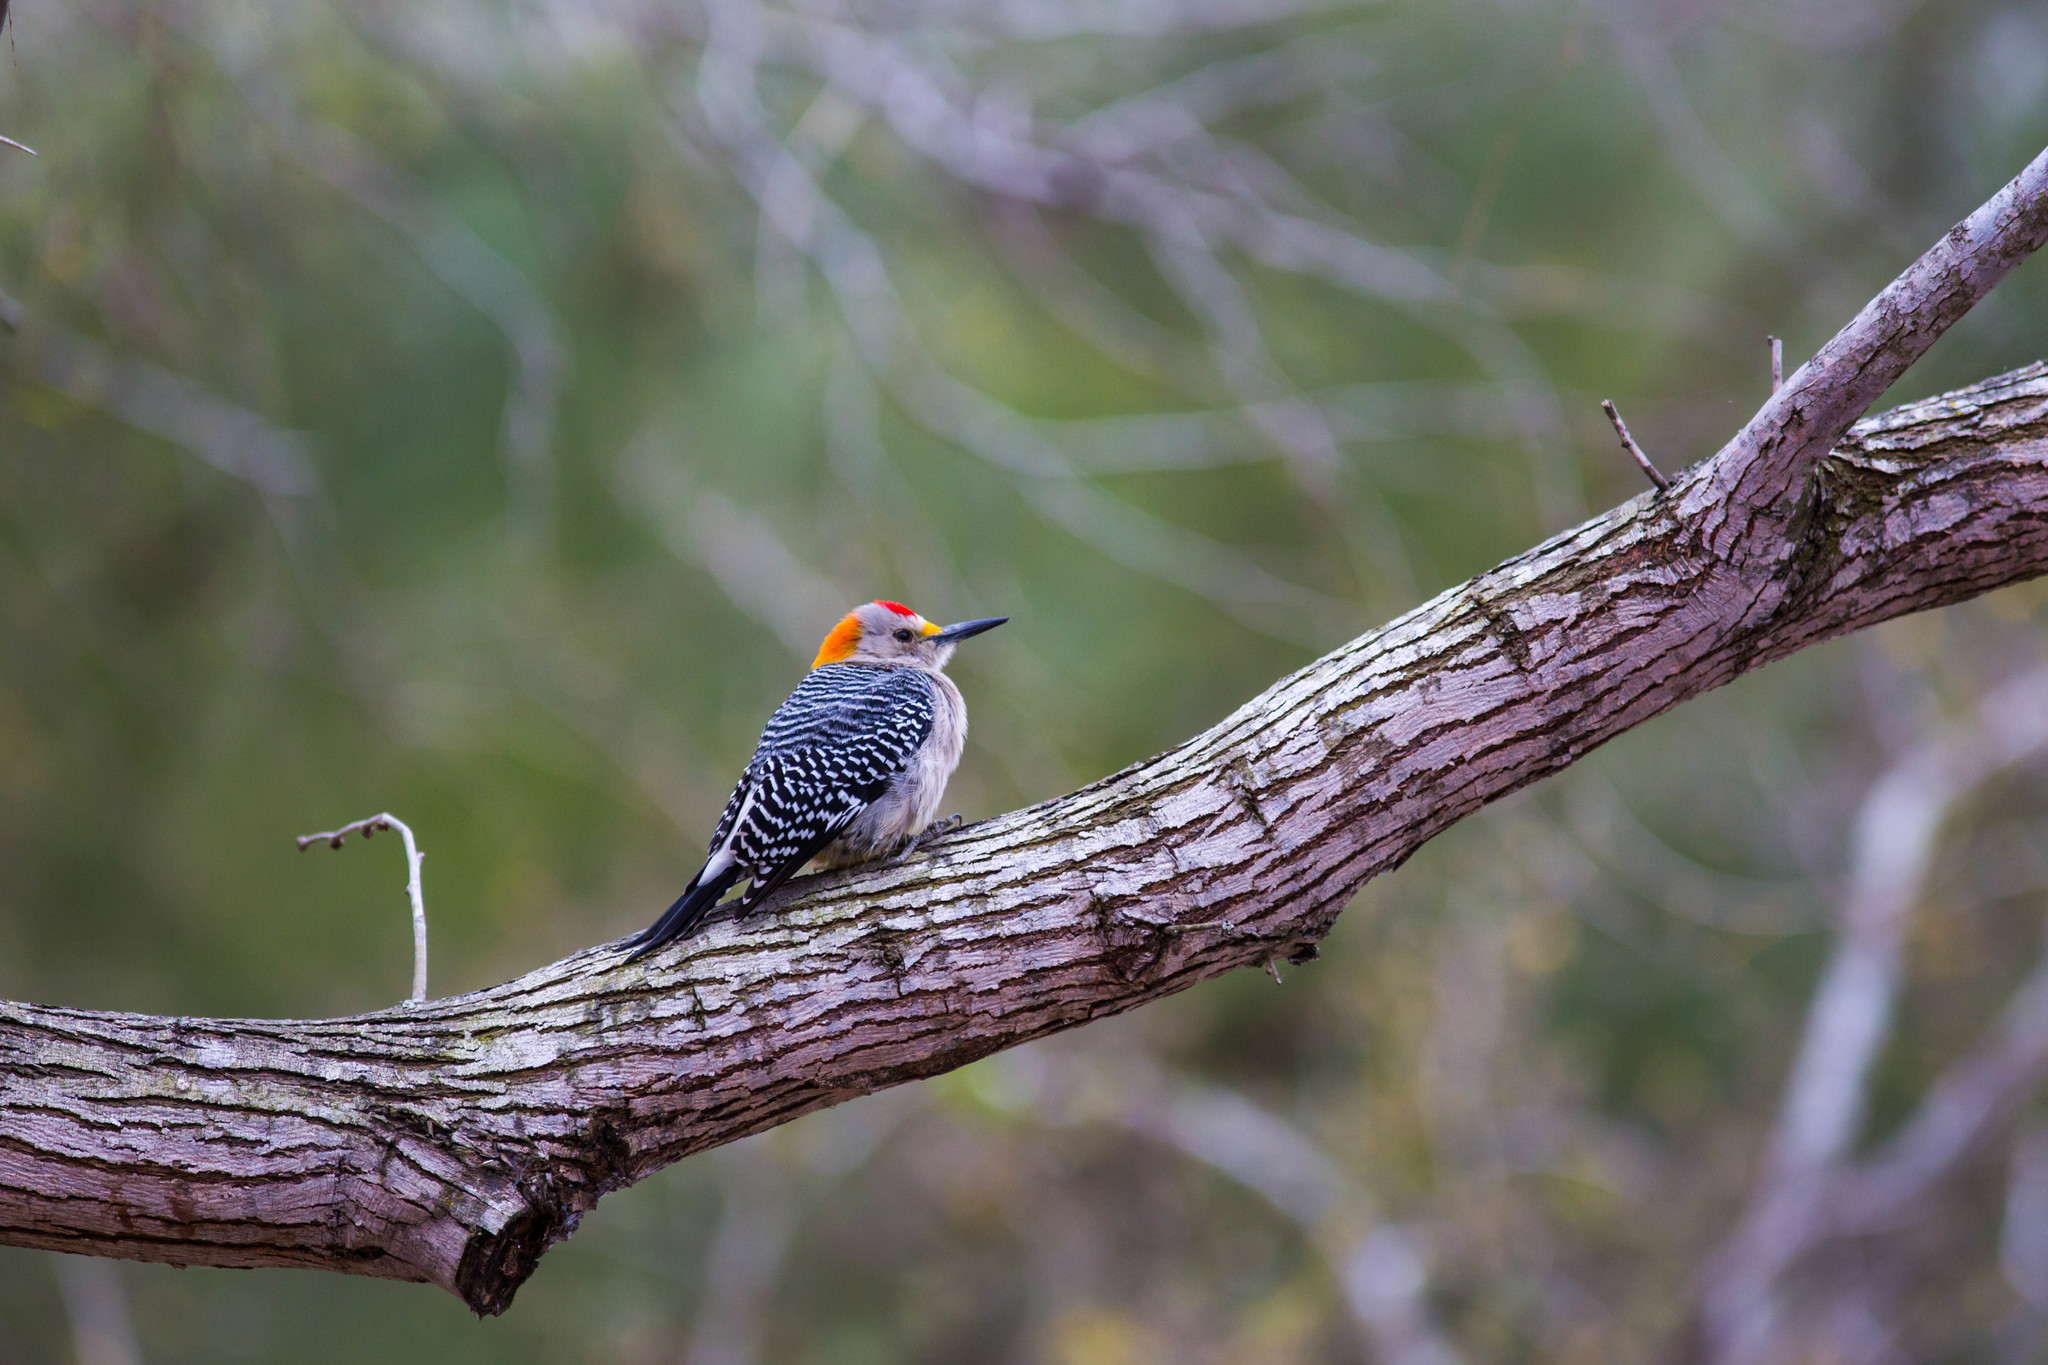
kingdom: Animalia
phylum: Chordata
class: Aves
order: Piciformes
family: Picidae
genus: Melanerpes
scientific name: Melanerpes aurifrons
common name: Golden-fronted woodpecker
